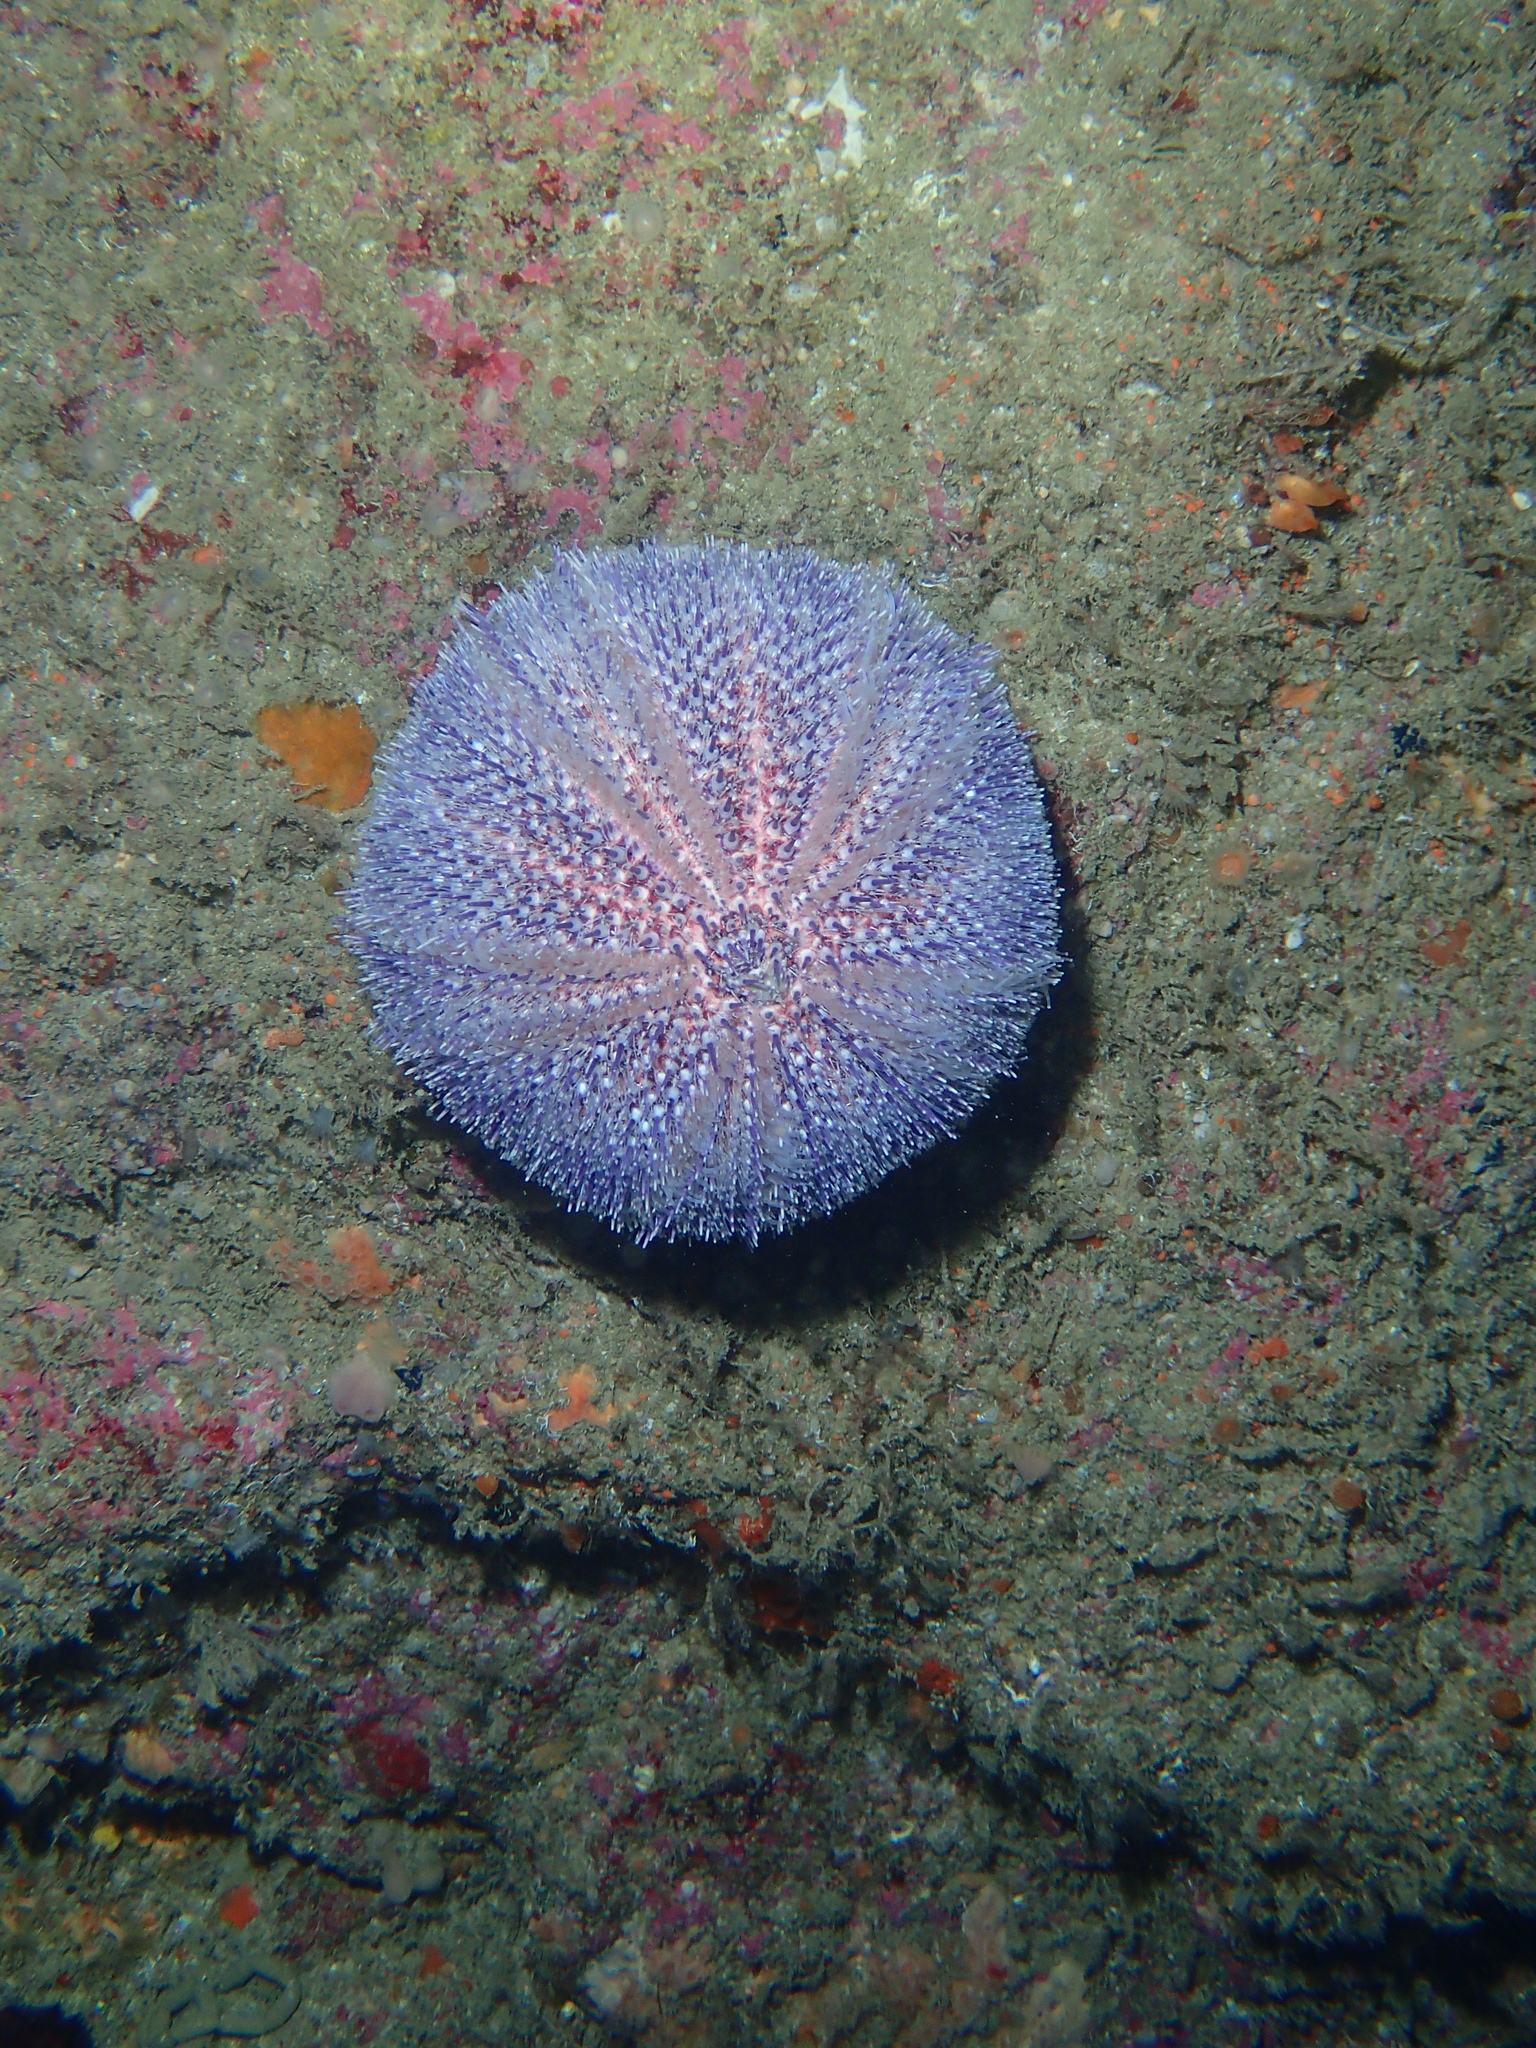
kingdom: Animalia
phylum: Echinodermata
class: Echinoidea
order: Camarodonta
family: Echinidae
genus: Echinus
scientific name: Echinus esculentus
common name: Edible sea urchin
